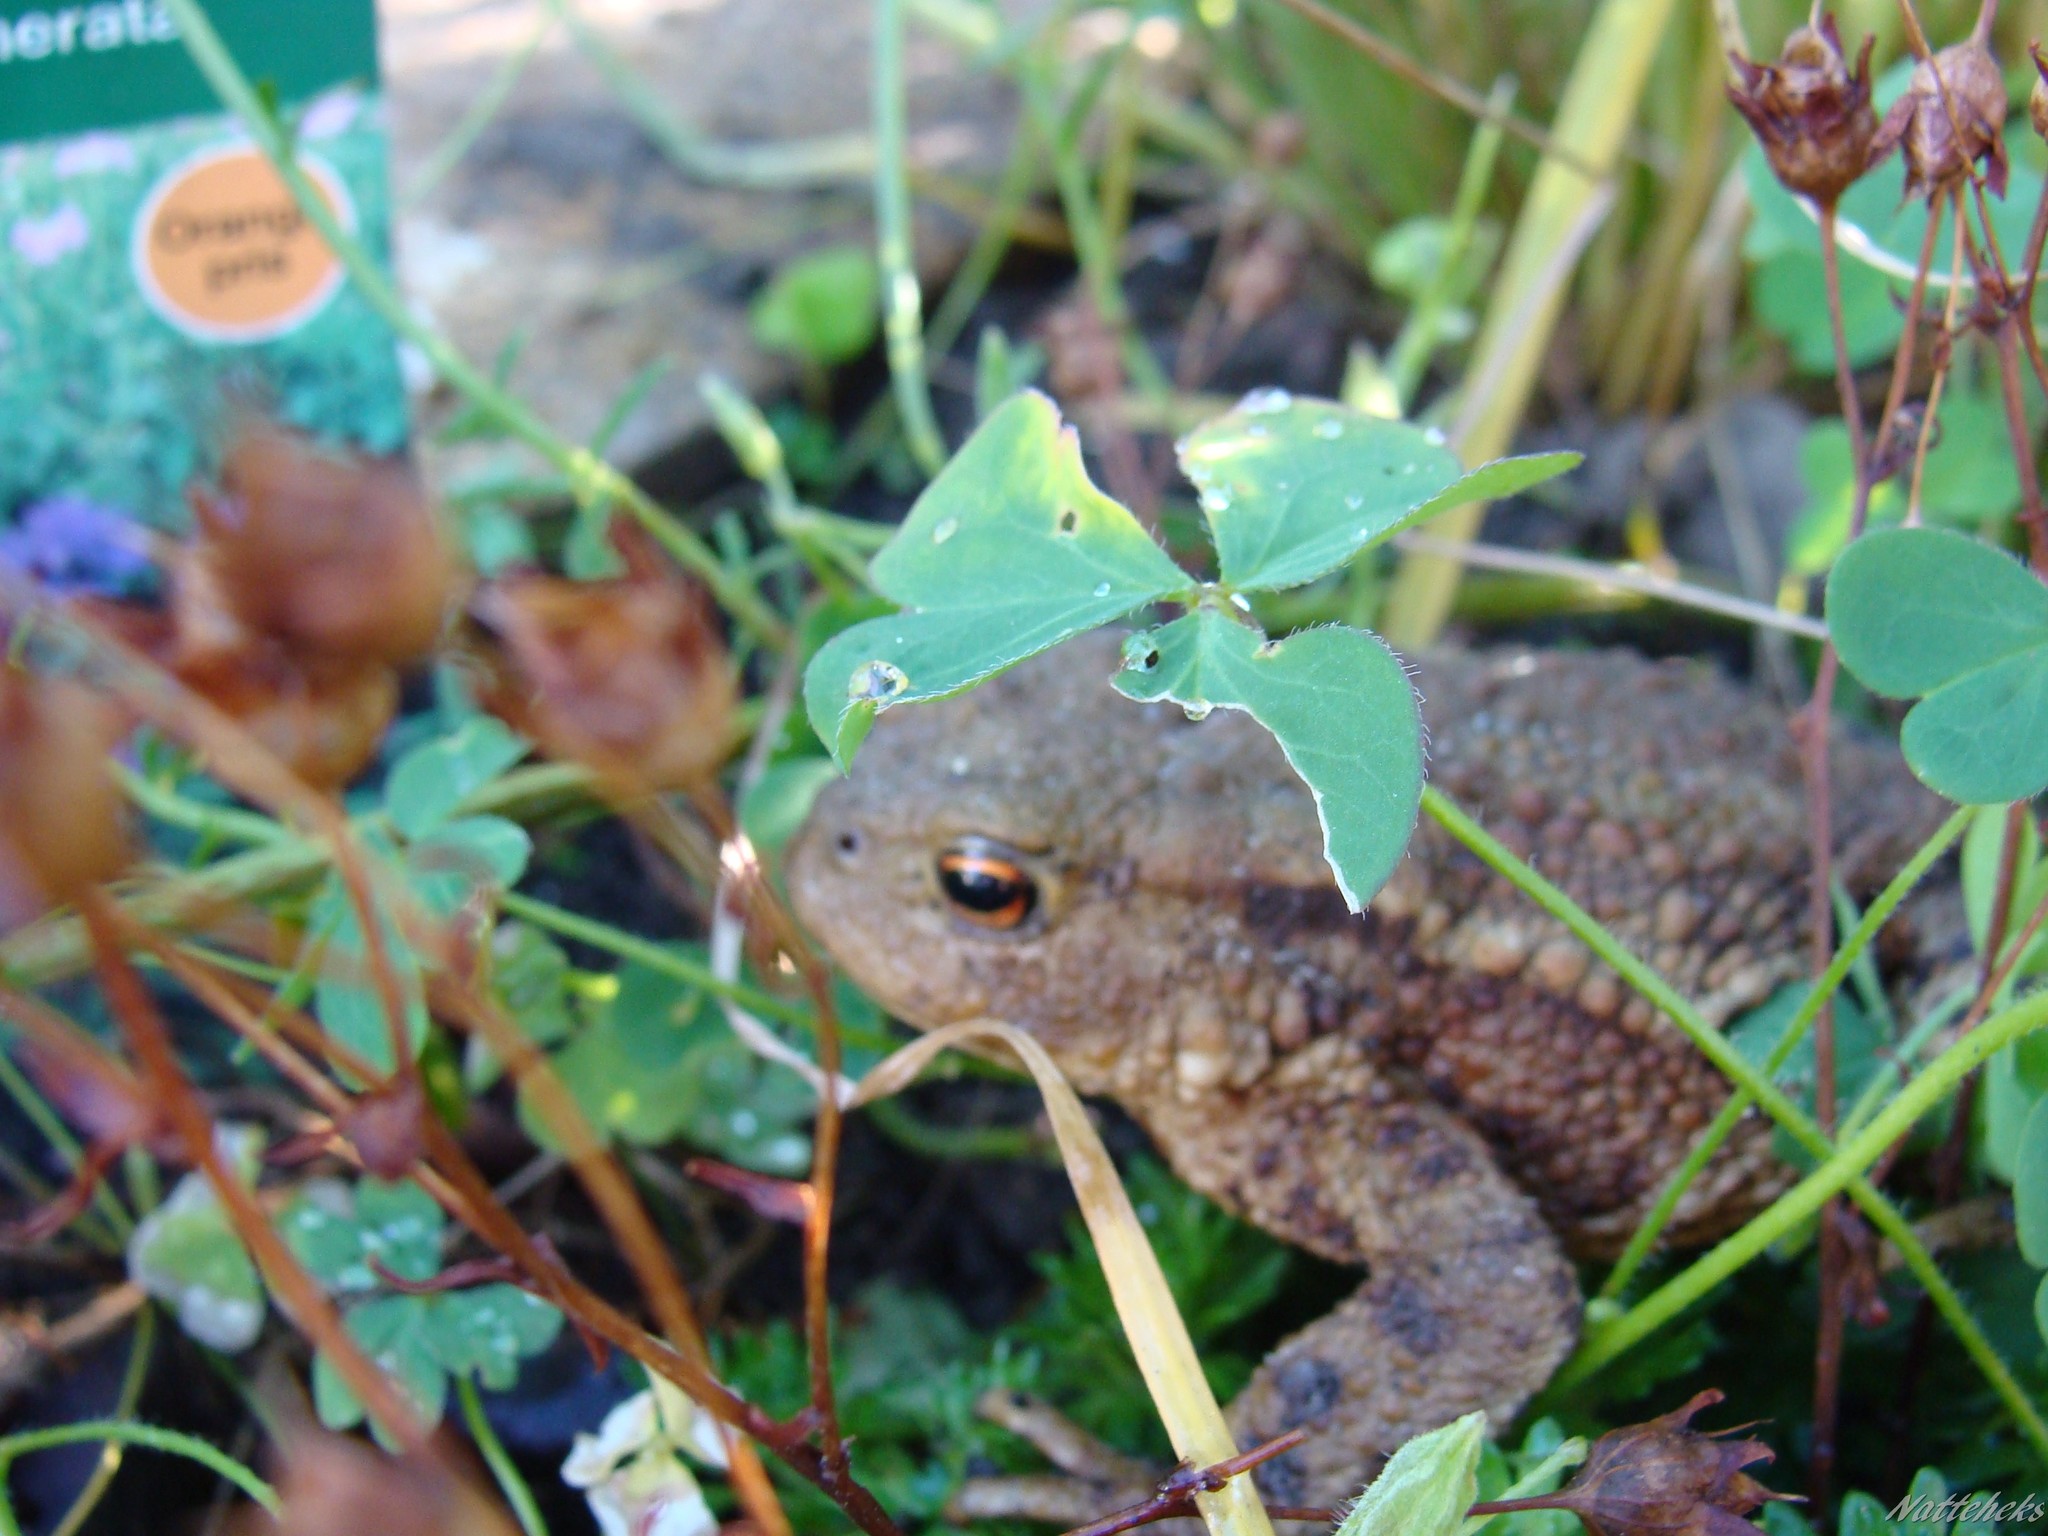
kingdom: Animalia
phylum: Chordata
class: Amphibia
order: Anura
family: Bufonidae
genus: Bufo
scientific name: Bufo bufo
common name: Common toad
